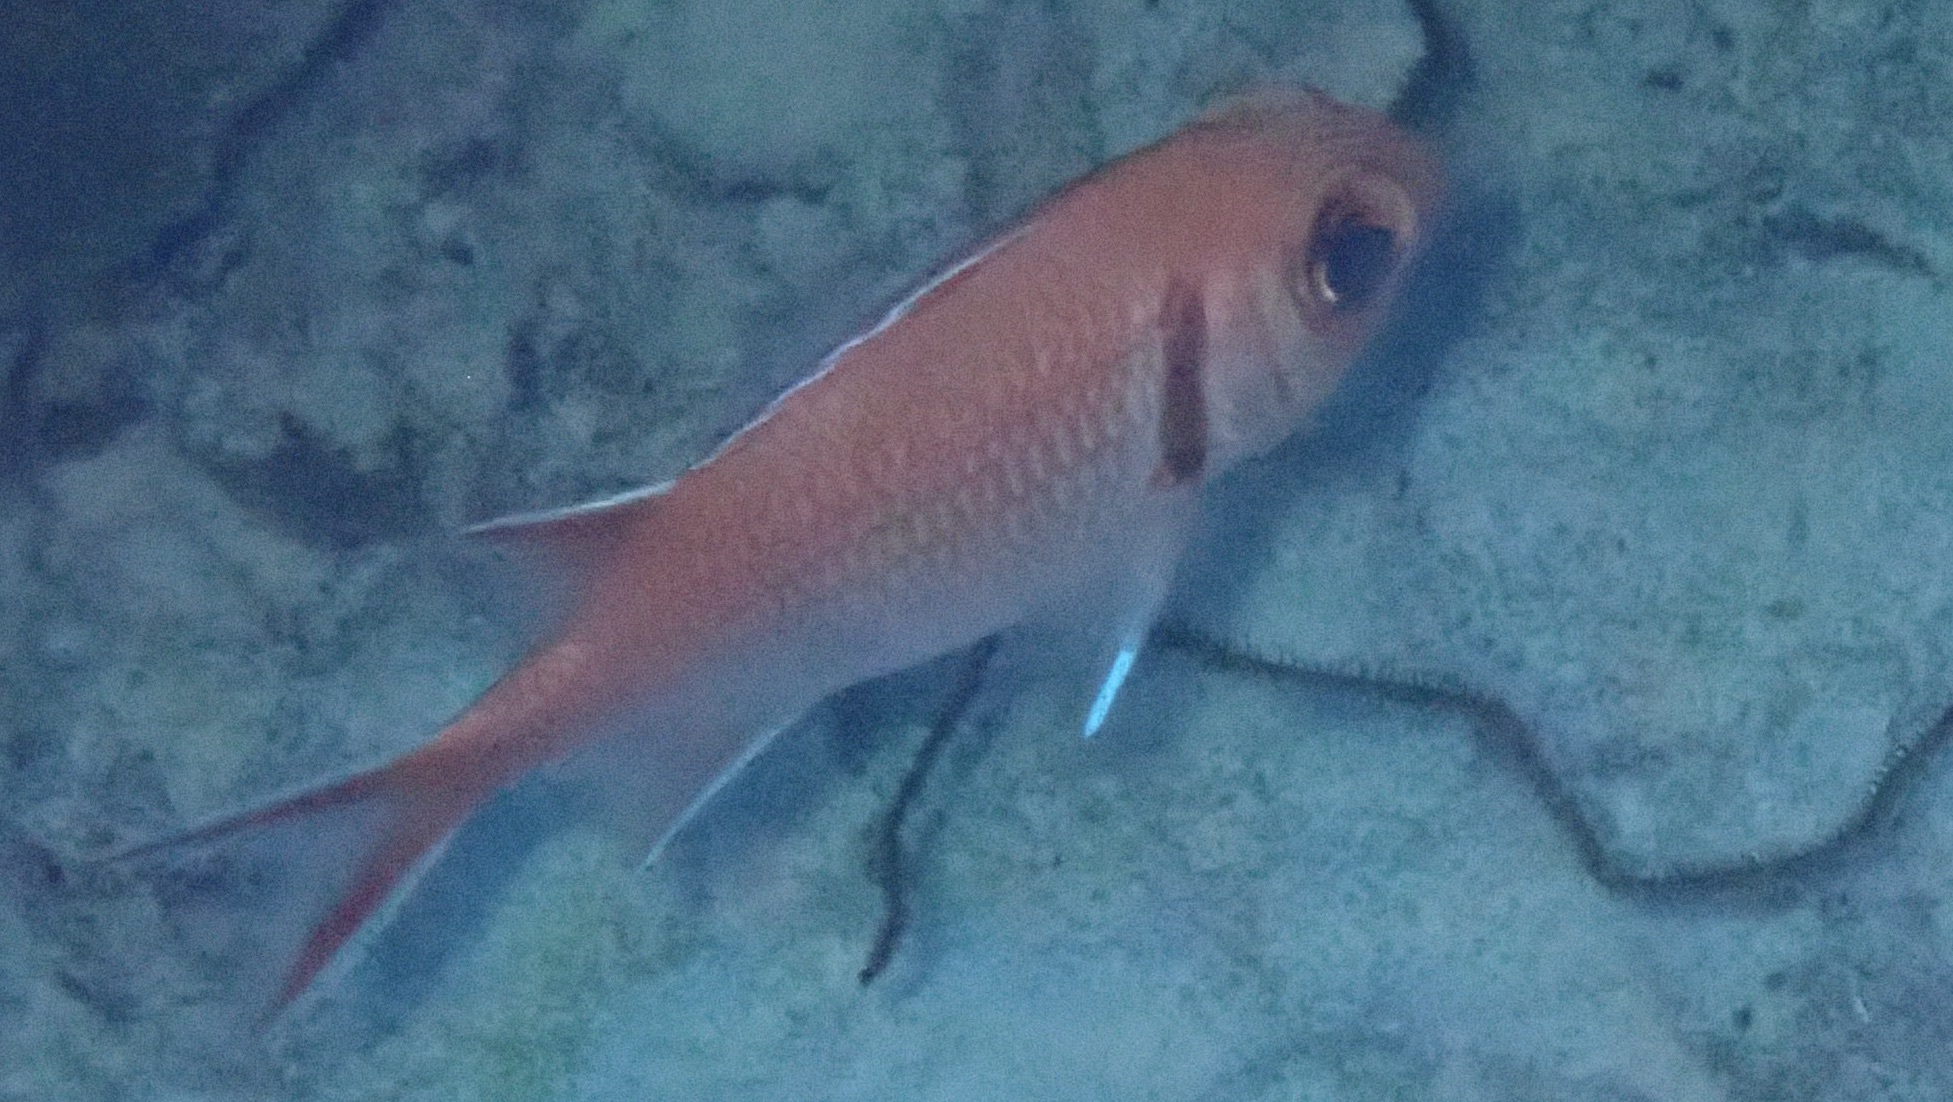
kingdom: Animalia
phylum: Chordata
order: Beryciformes
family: Holocentridae
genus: Myripristis
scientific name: Myripristis jacobus
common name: Blackbar soldierfish
